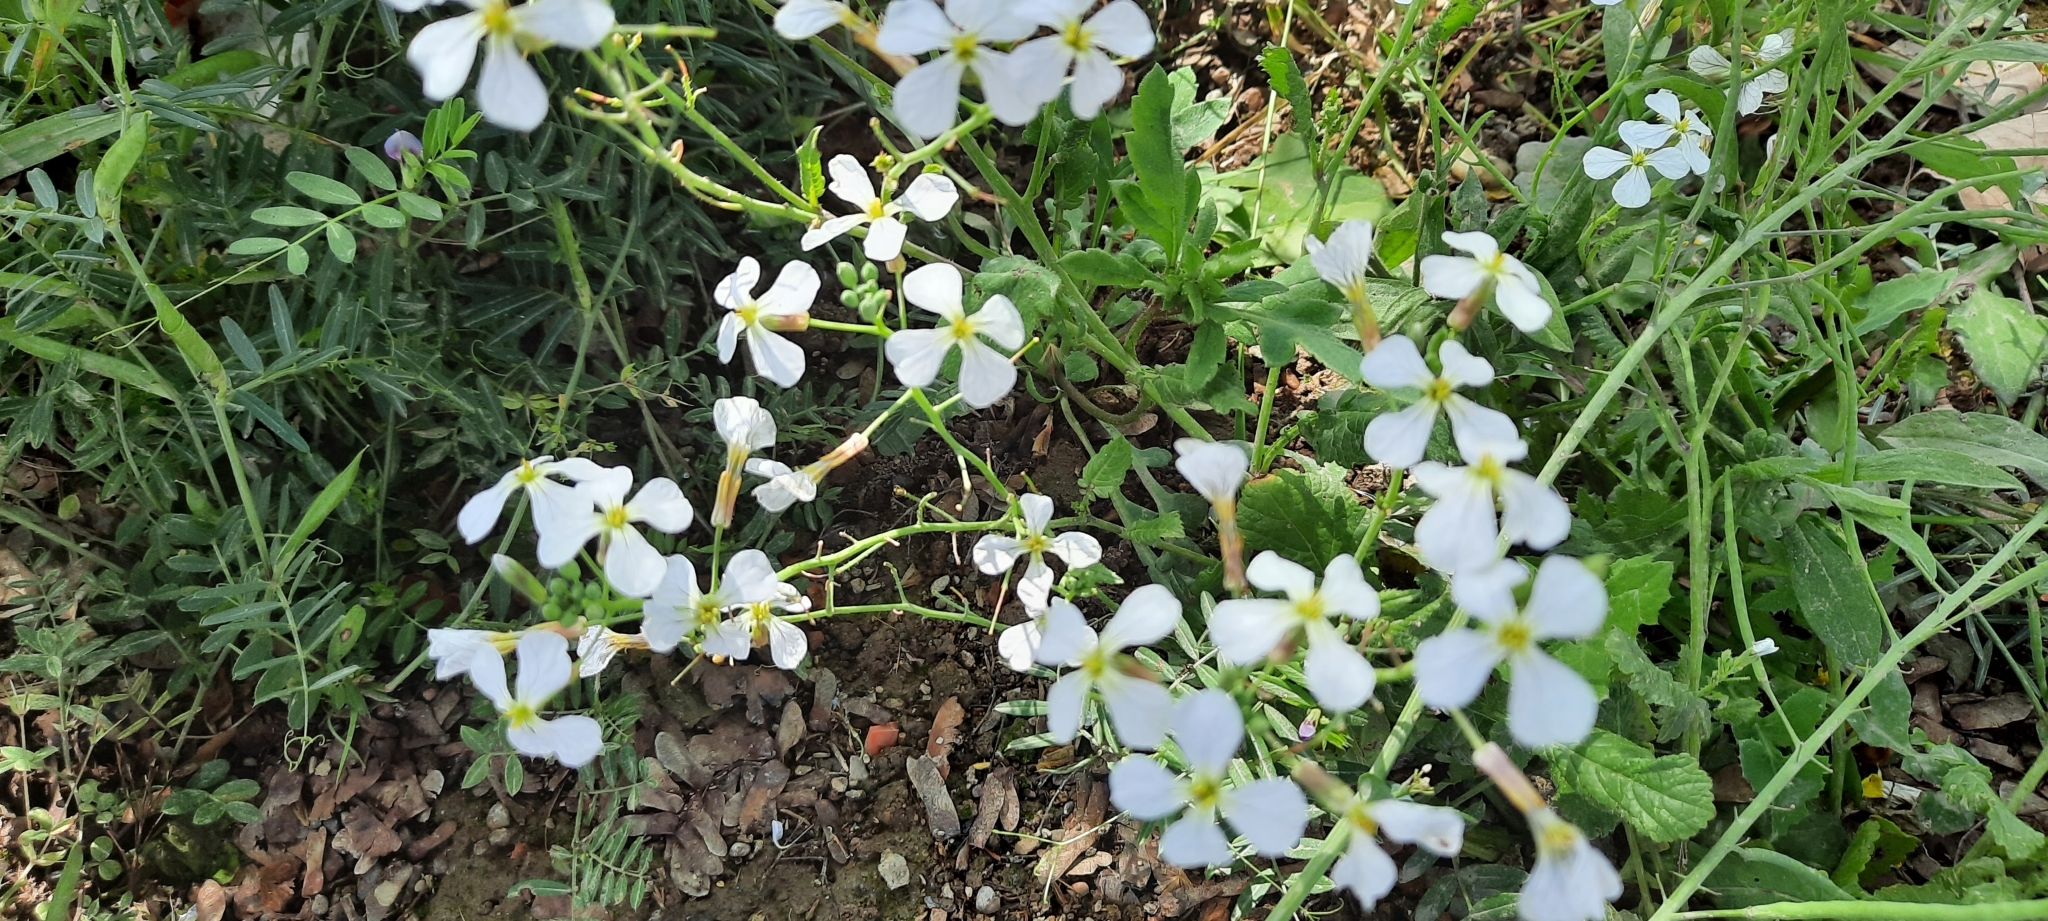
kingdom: Plantae
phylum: Tracheophyta
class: Magnoliopsida
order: Brassicales
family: Brassicaceae
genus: Raphanus
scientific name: Raphanus raphanistrum
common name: Wild radish
